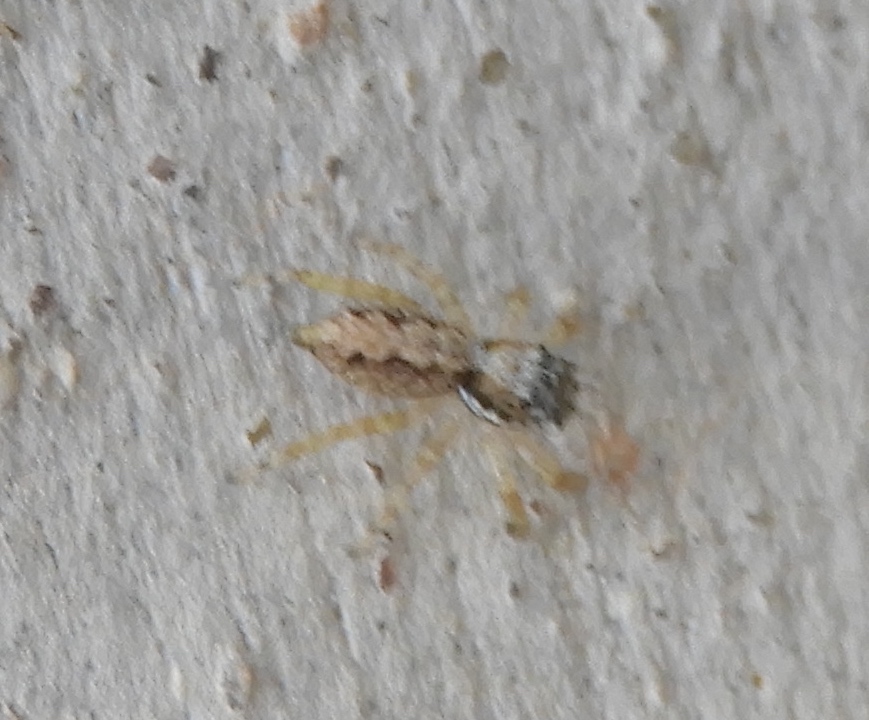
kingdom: Animalia
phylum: Arthropoda
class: Arachnida
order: Araneae
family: Salticidae
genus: Balmaceda
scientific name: Balmaceda
